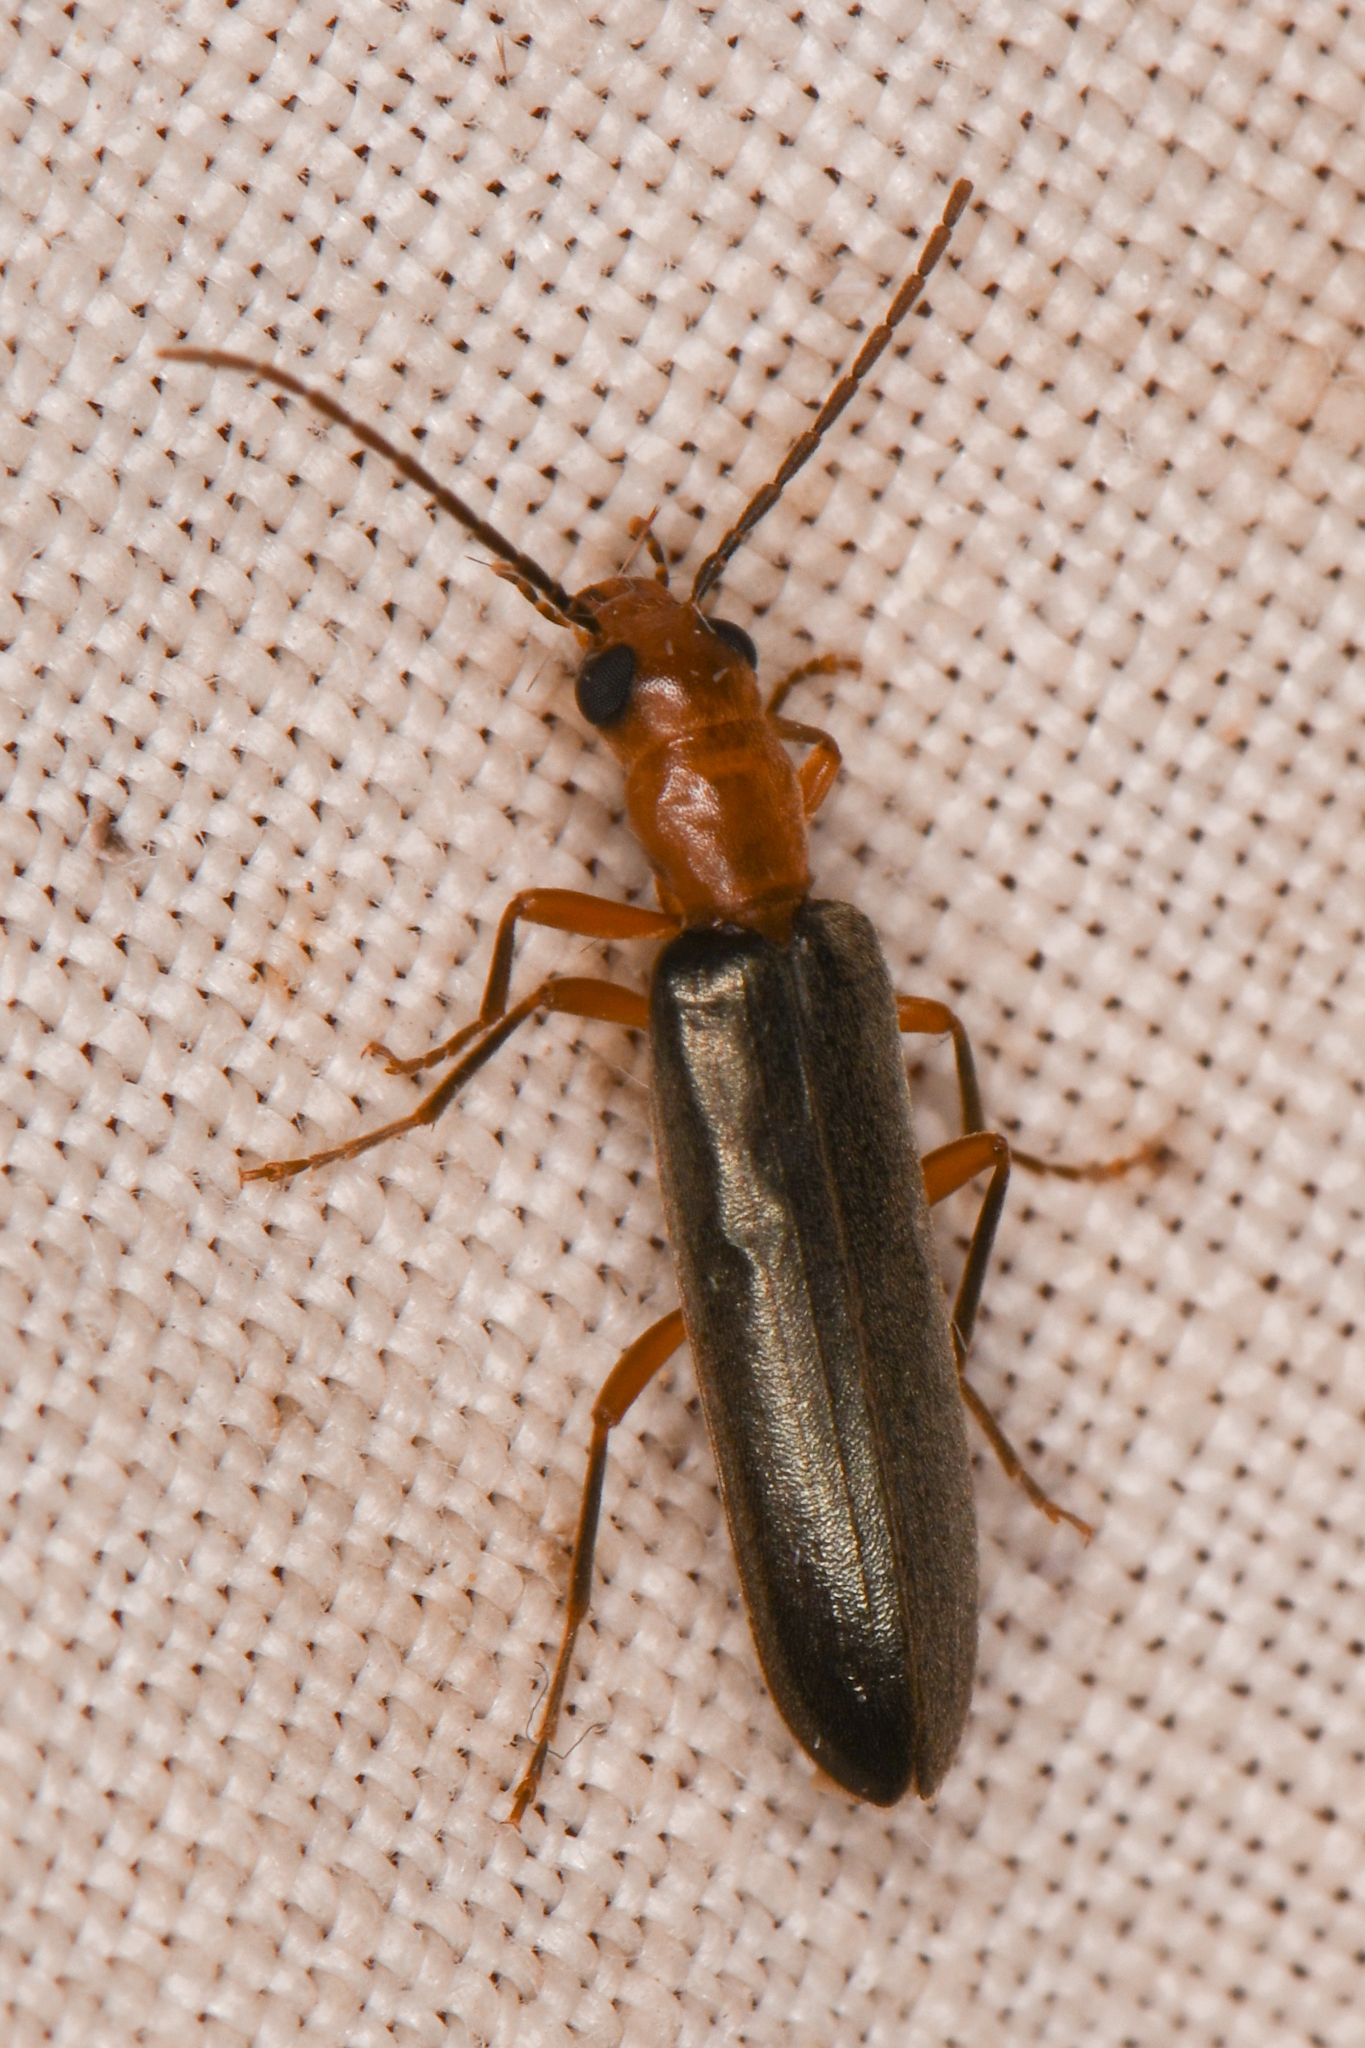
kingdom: Animalia
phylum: Arthropoda
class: Insecta
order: Coleoptera
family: Oedemeridae
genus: Xanthochroina
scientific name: Xanthochroina bicolor
